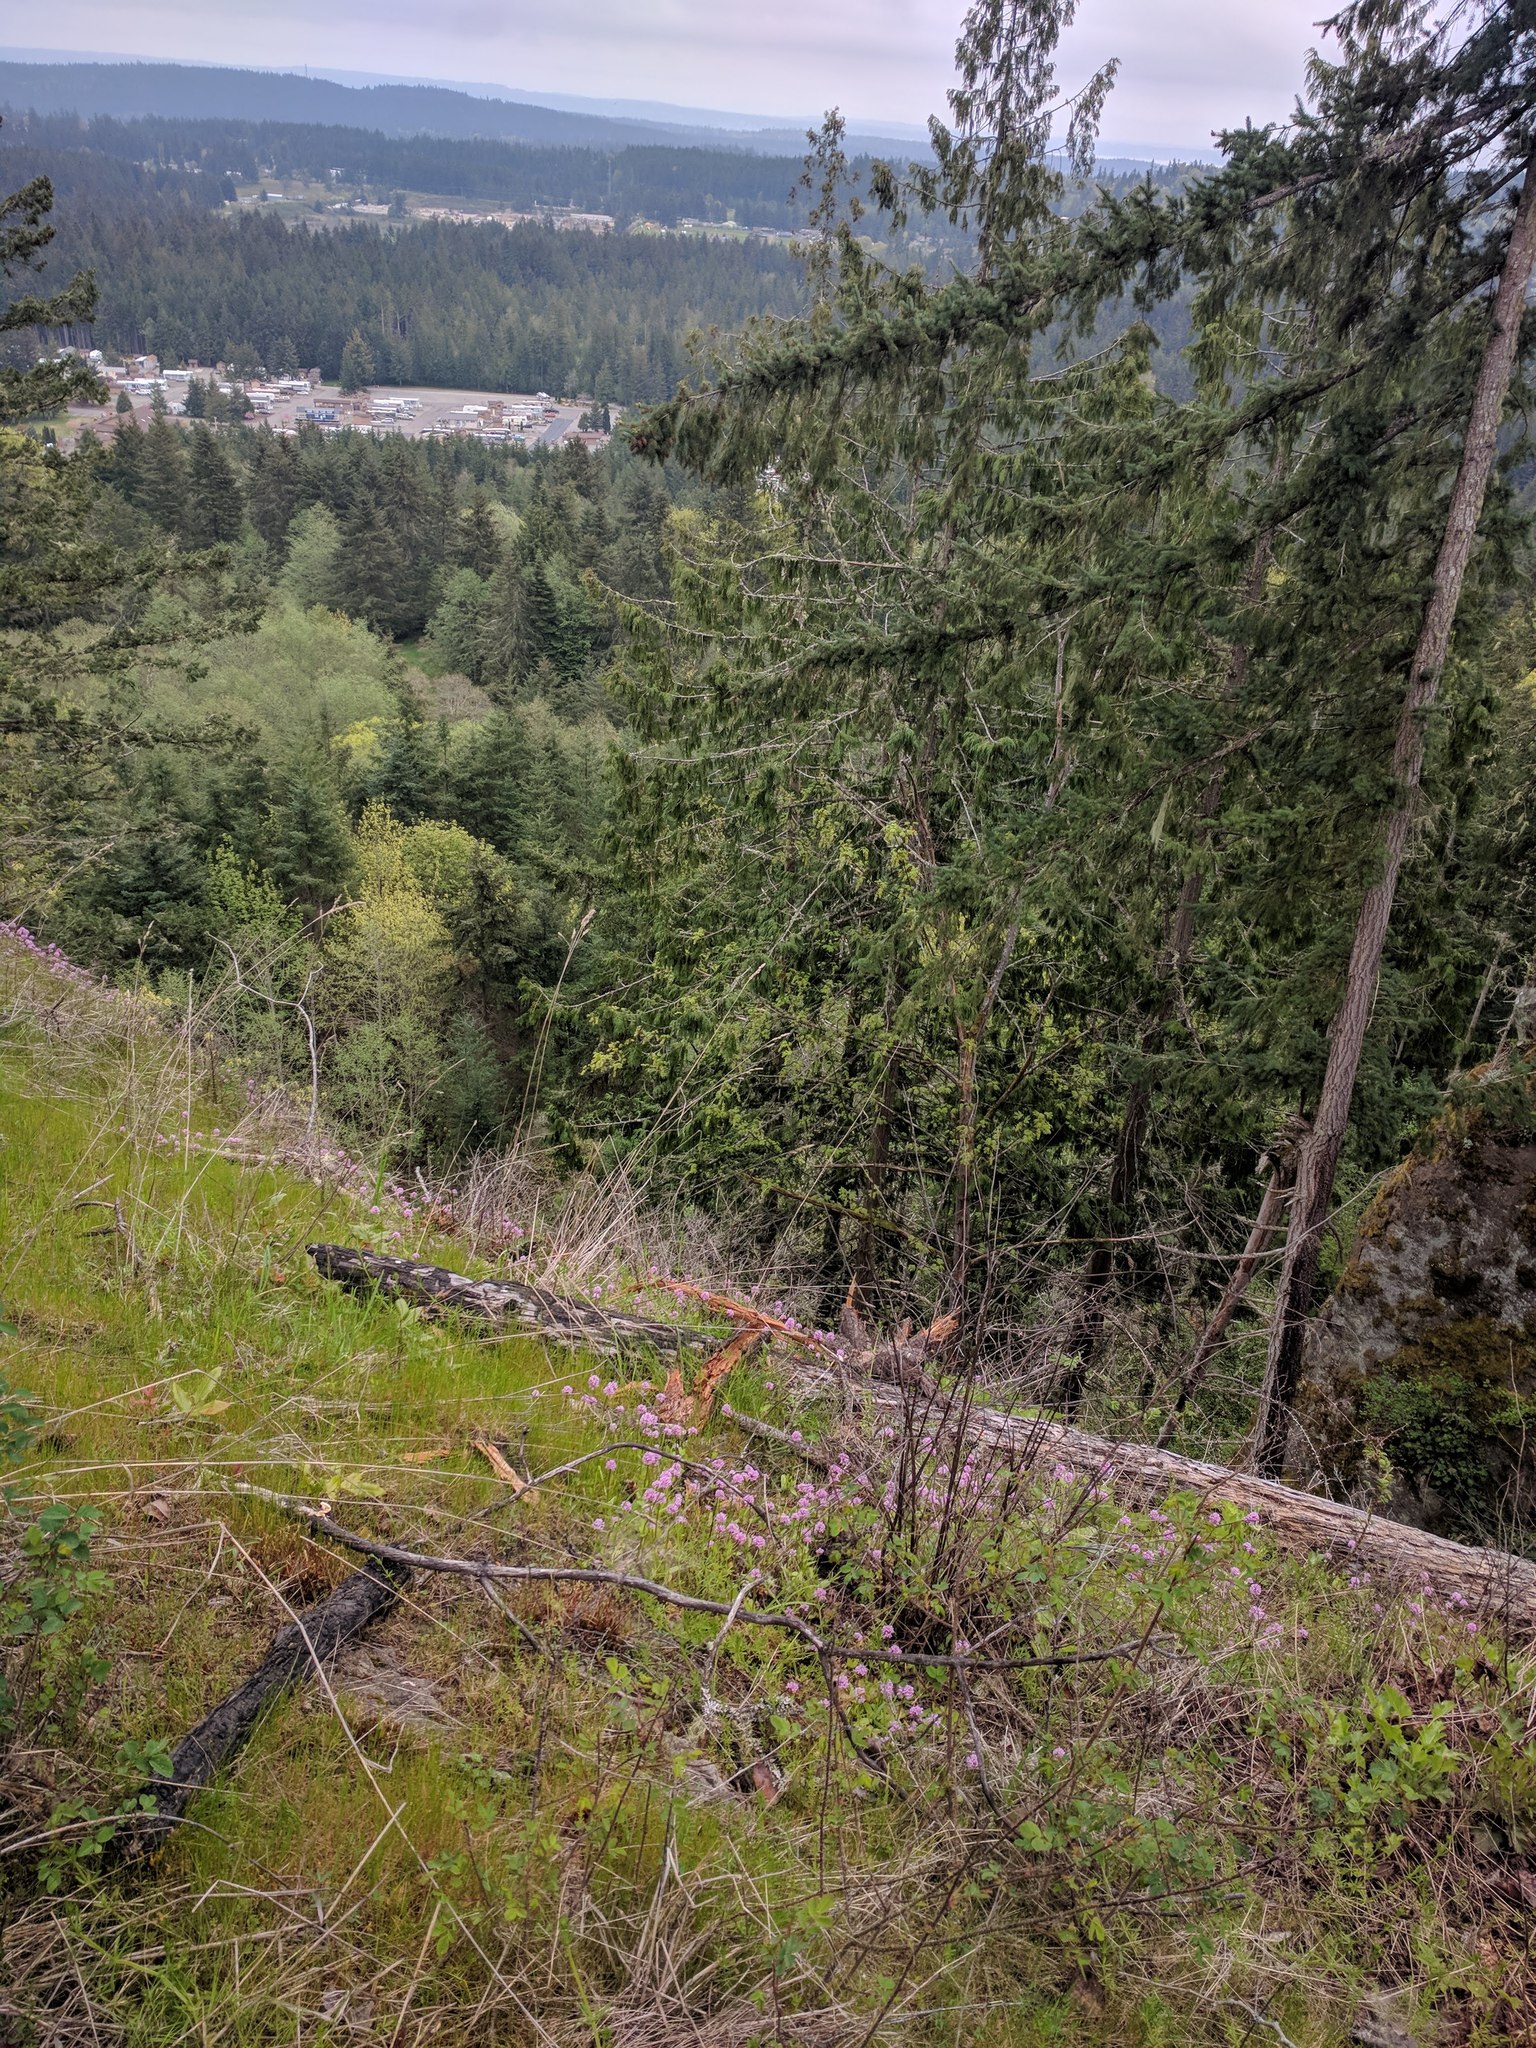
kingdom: Plantae
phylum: Tracheophyta
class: Magnoliopsida
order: Dipsacales
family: Caprifoliaceae
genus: Plectritis
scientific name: Plectritis congesta
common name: Pink plectritis
